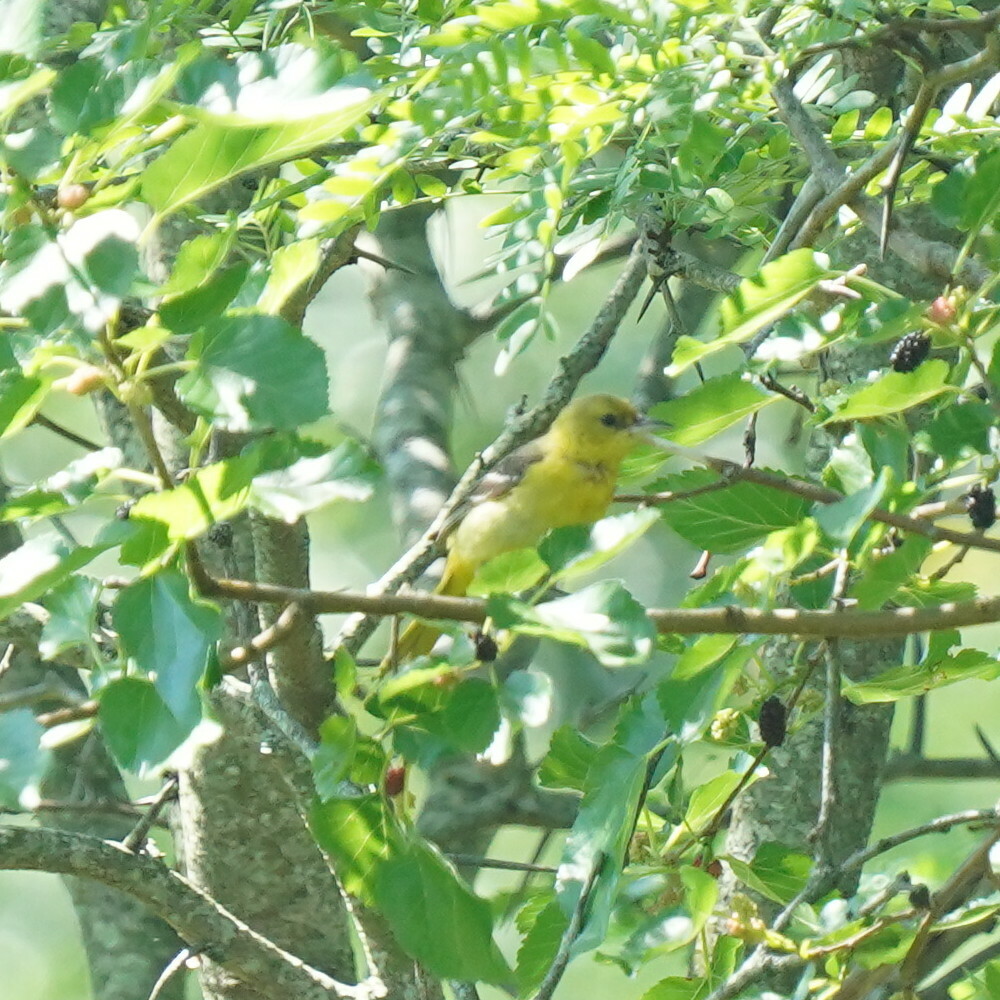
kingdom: Animalia
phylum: Chordata
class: Aves
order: Passeriformes
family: Icteridae
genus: Icterus
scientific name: Icterus spurius
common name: Orchard oriole
